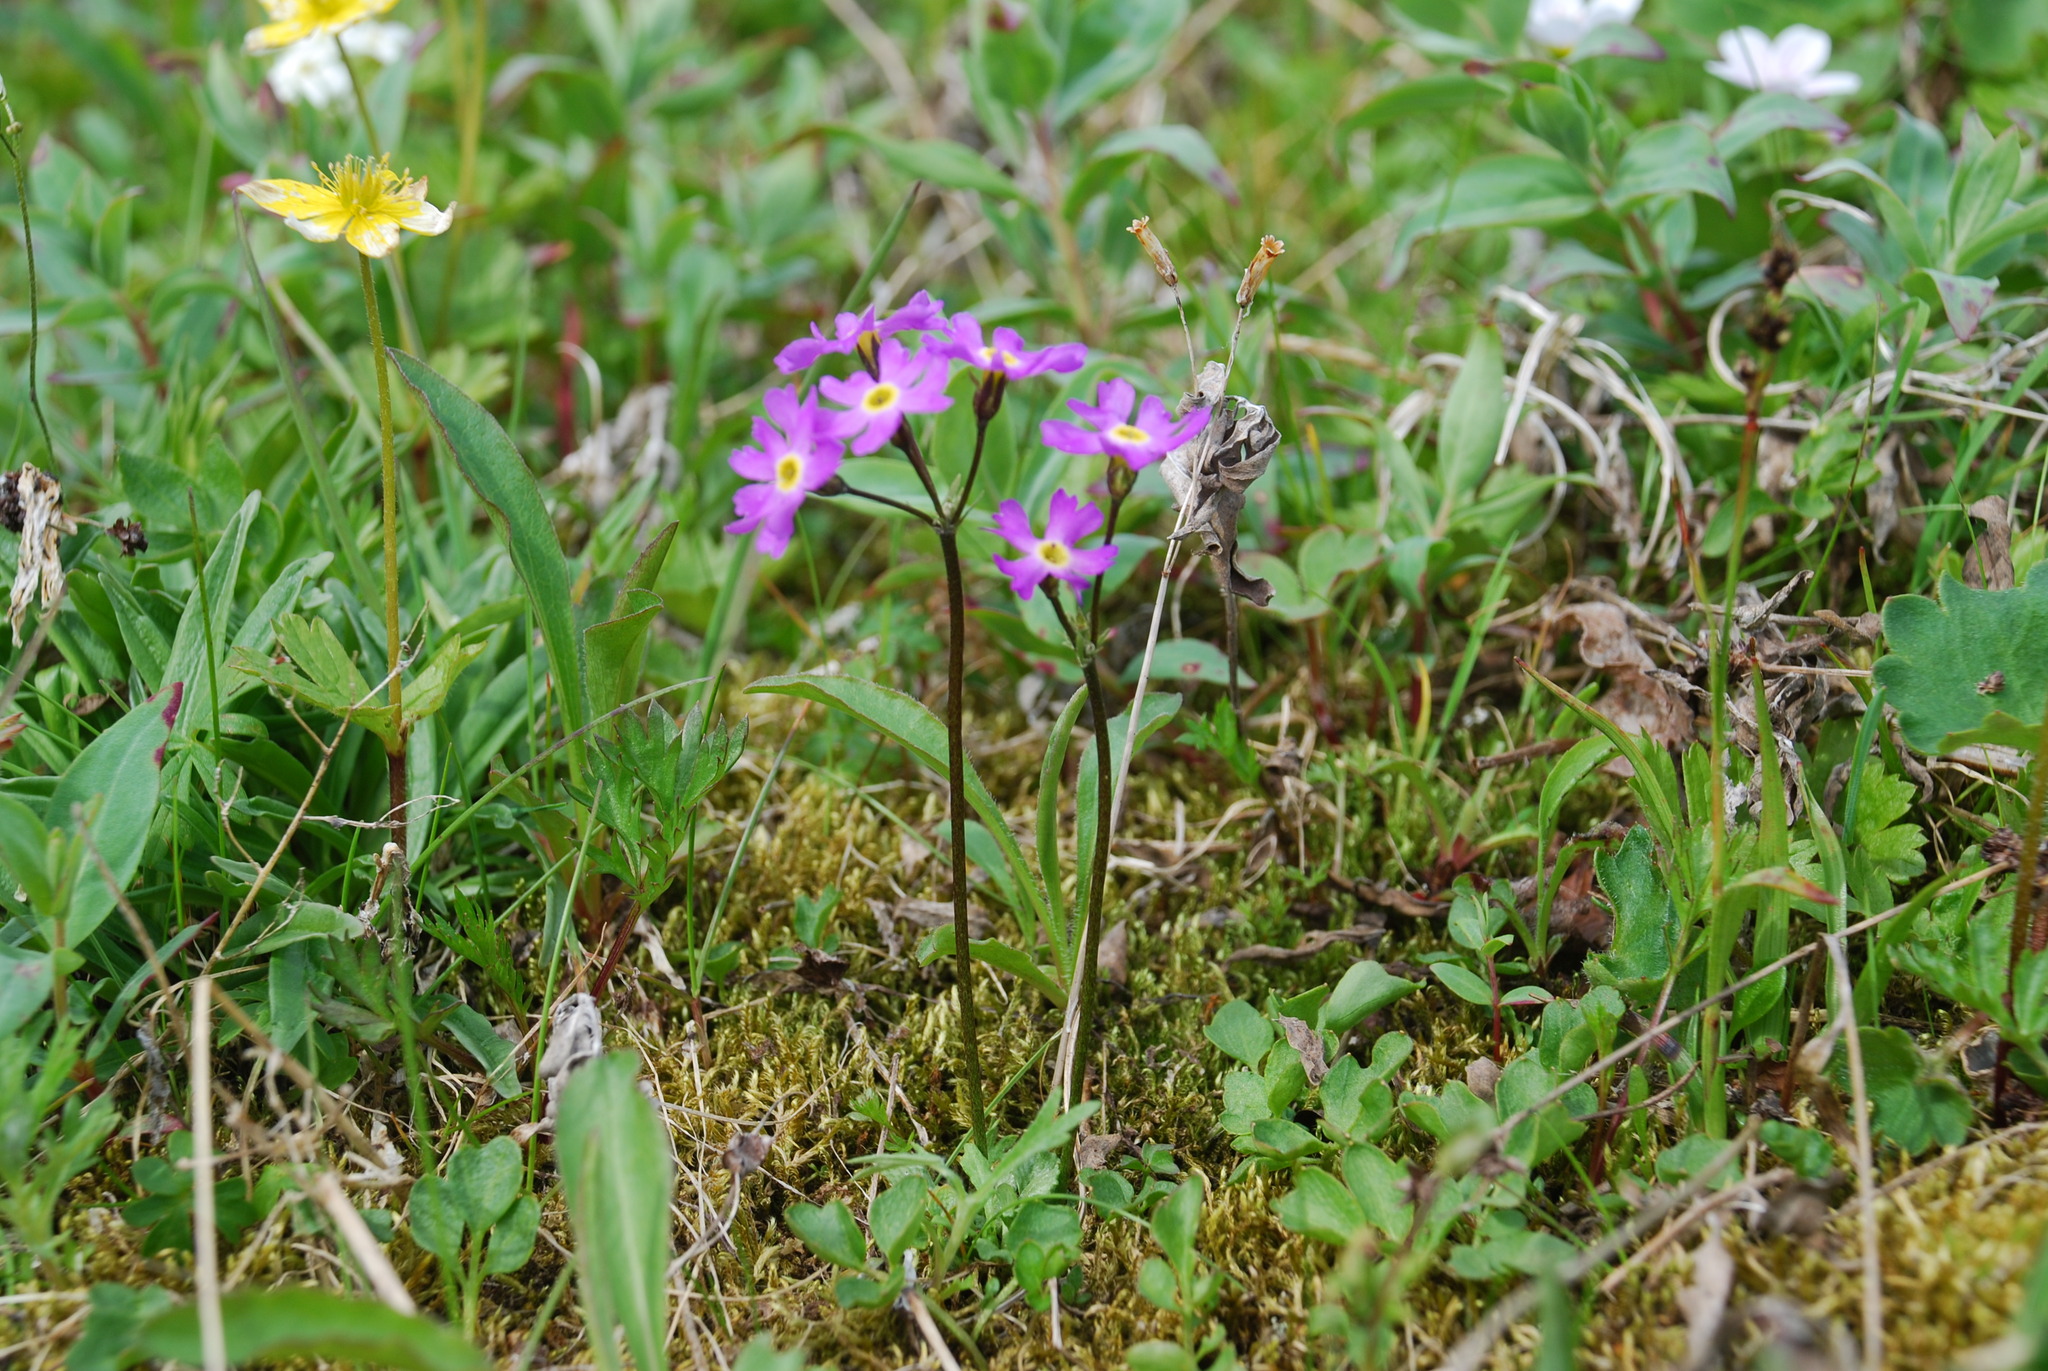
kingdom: Plantae
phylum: Tracheophyta
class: Magnoliopsida
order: Ericales
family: Primulaceae
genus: Primula
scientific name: Primula borealis
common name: Northern primrose
